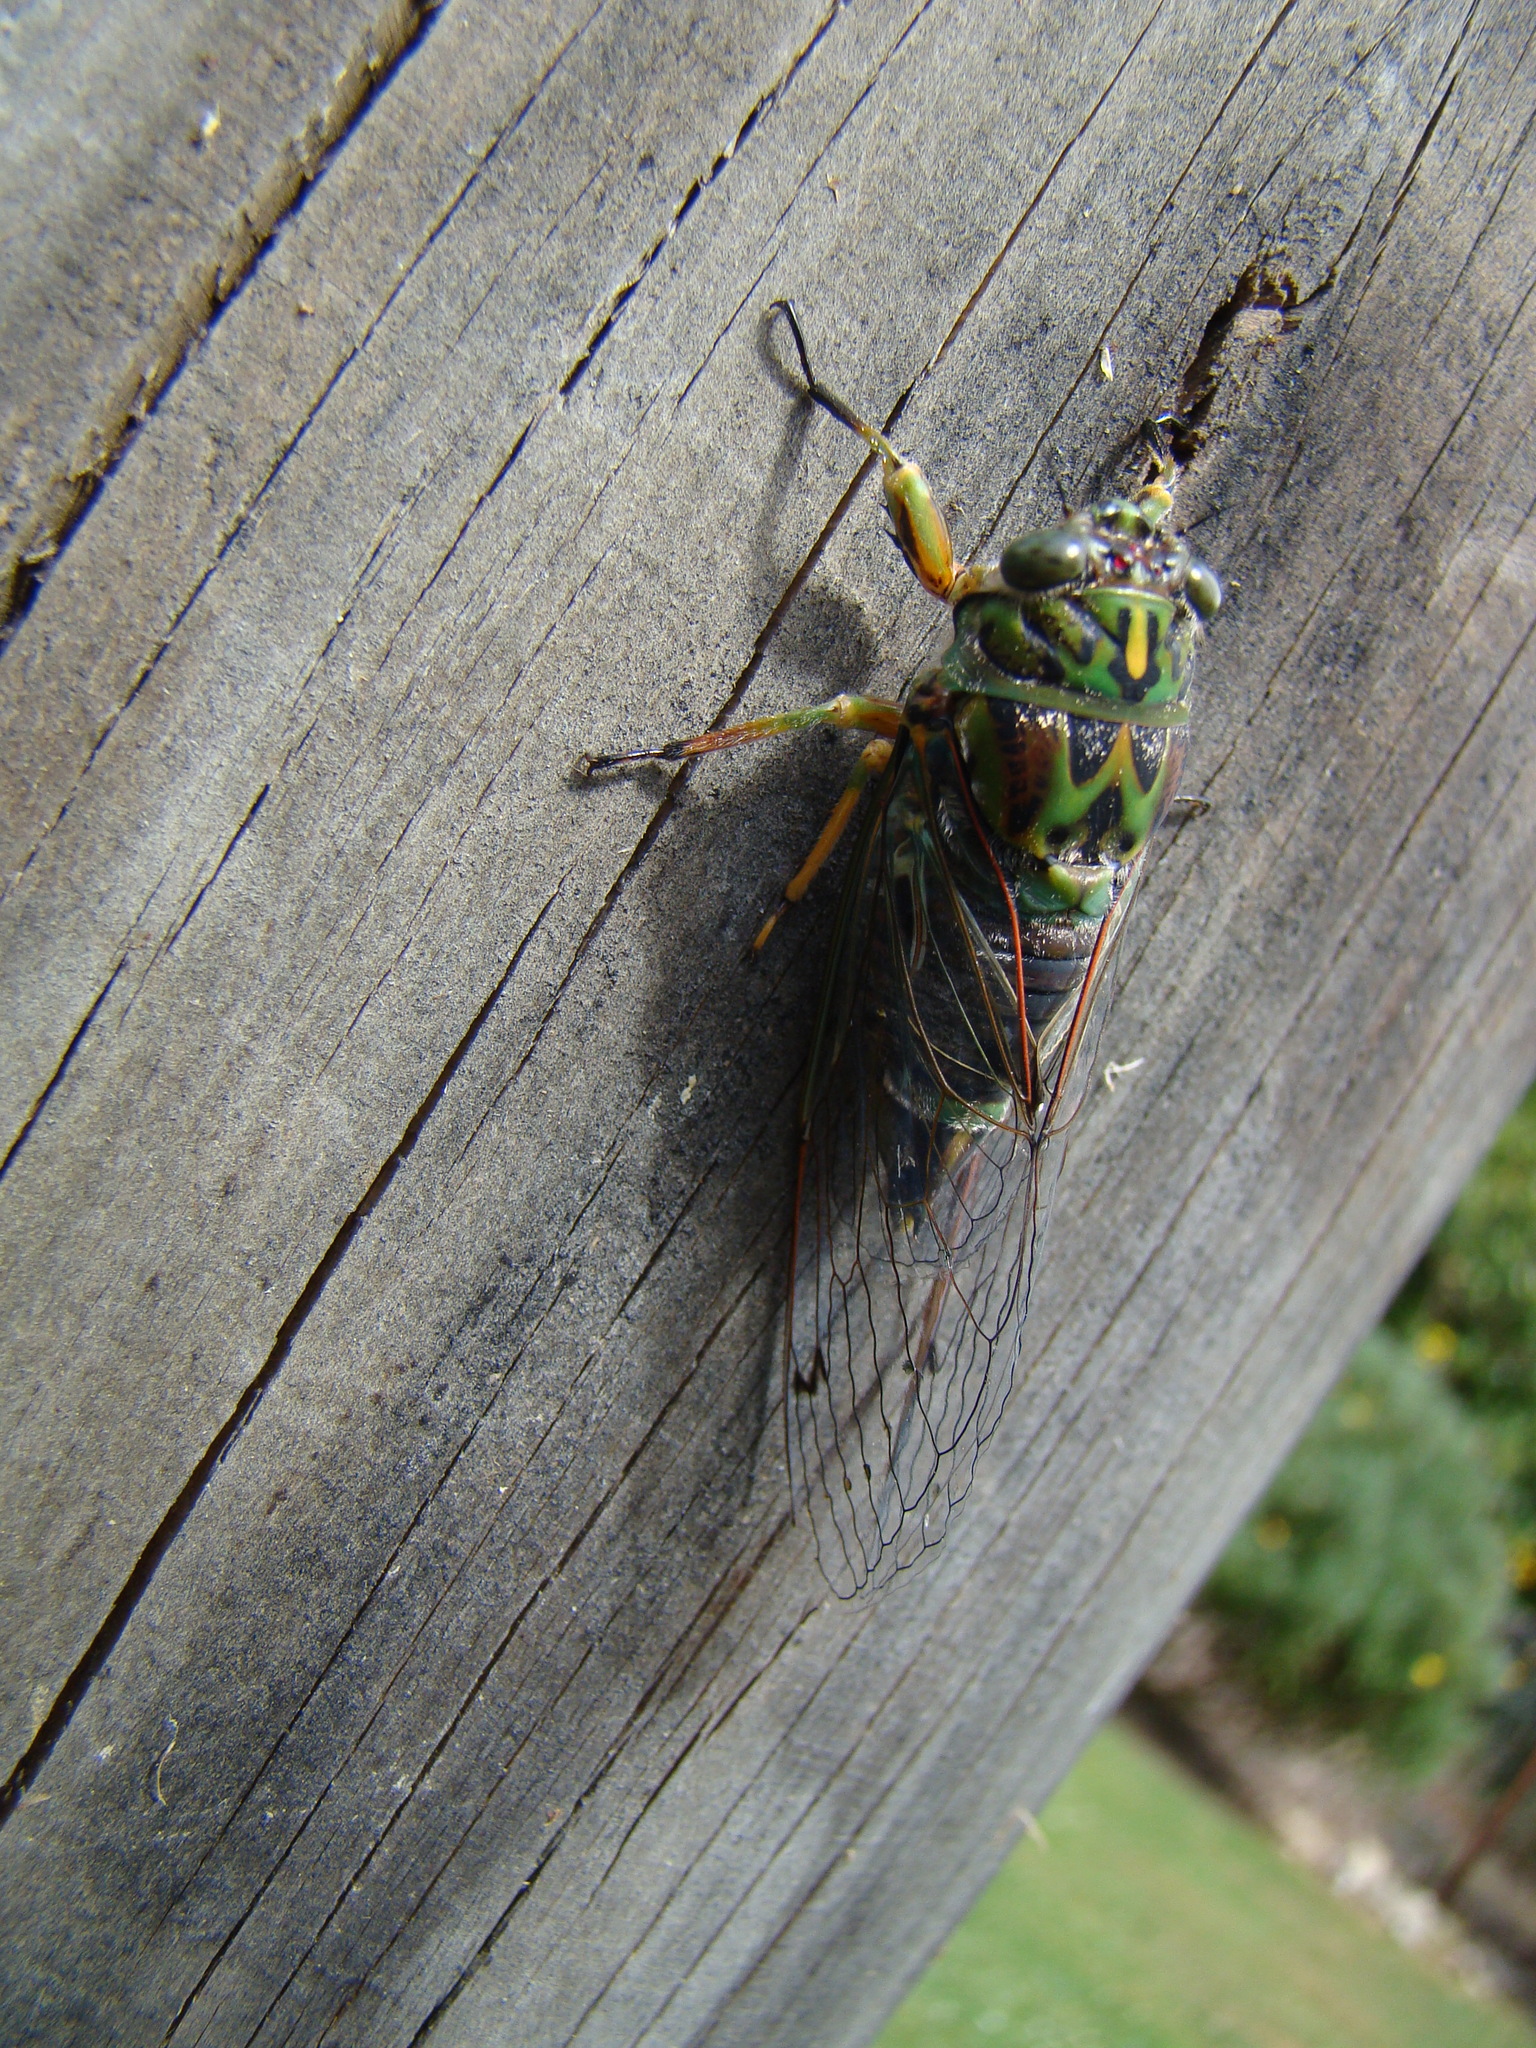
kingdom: Animalia
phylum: Arthropoda
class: Insecta
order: Hemiptera
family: Cicadidae
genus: Amphipsalta
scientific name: Amphipsalta zelandica
